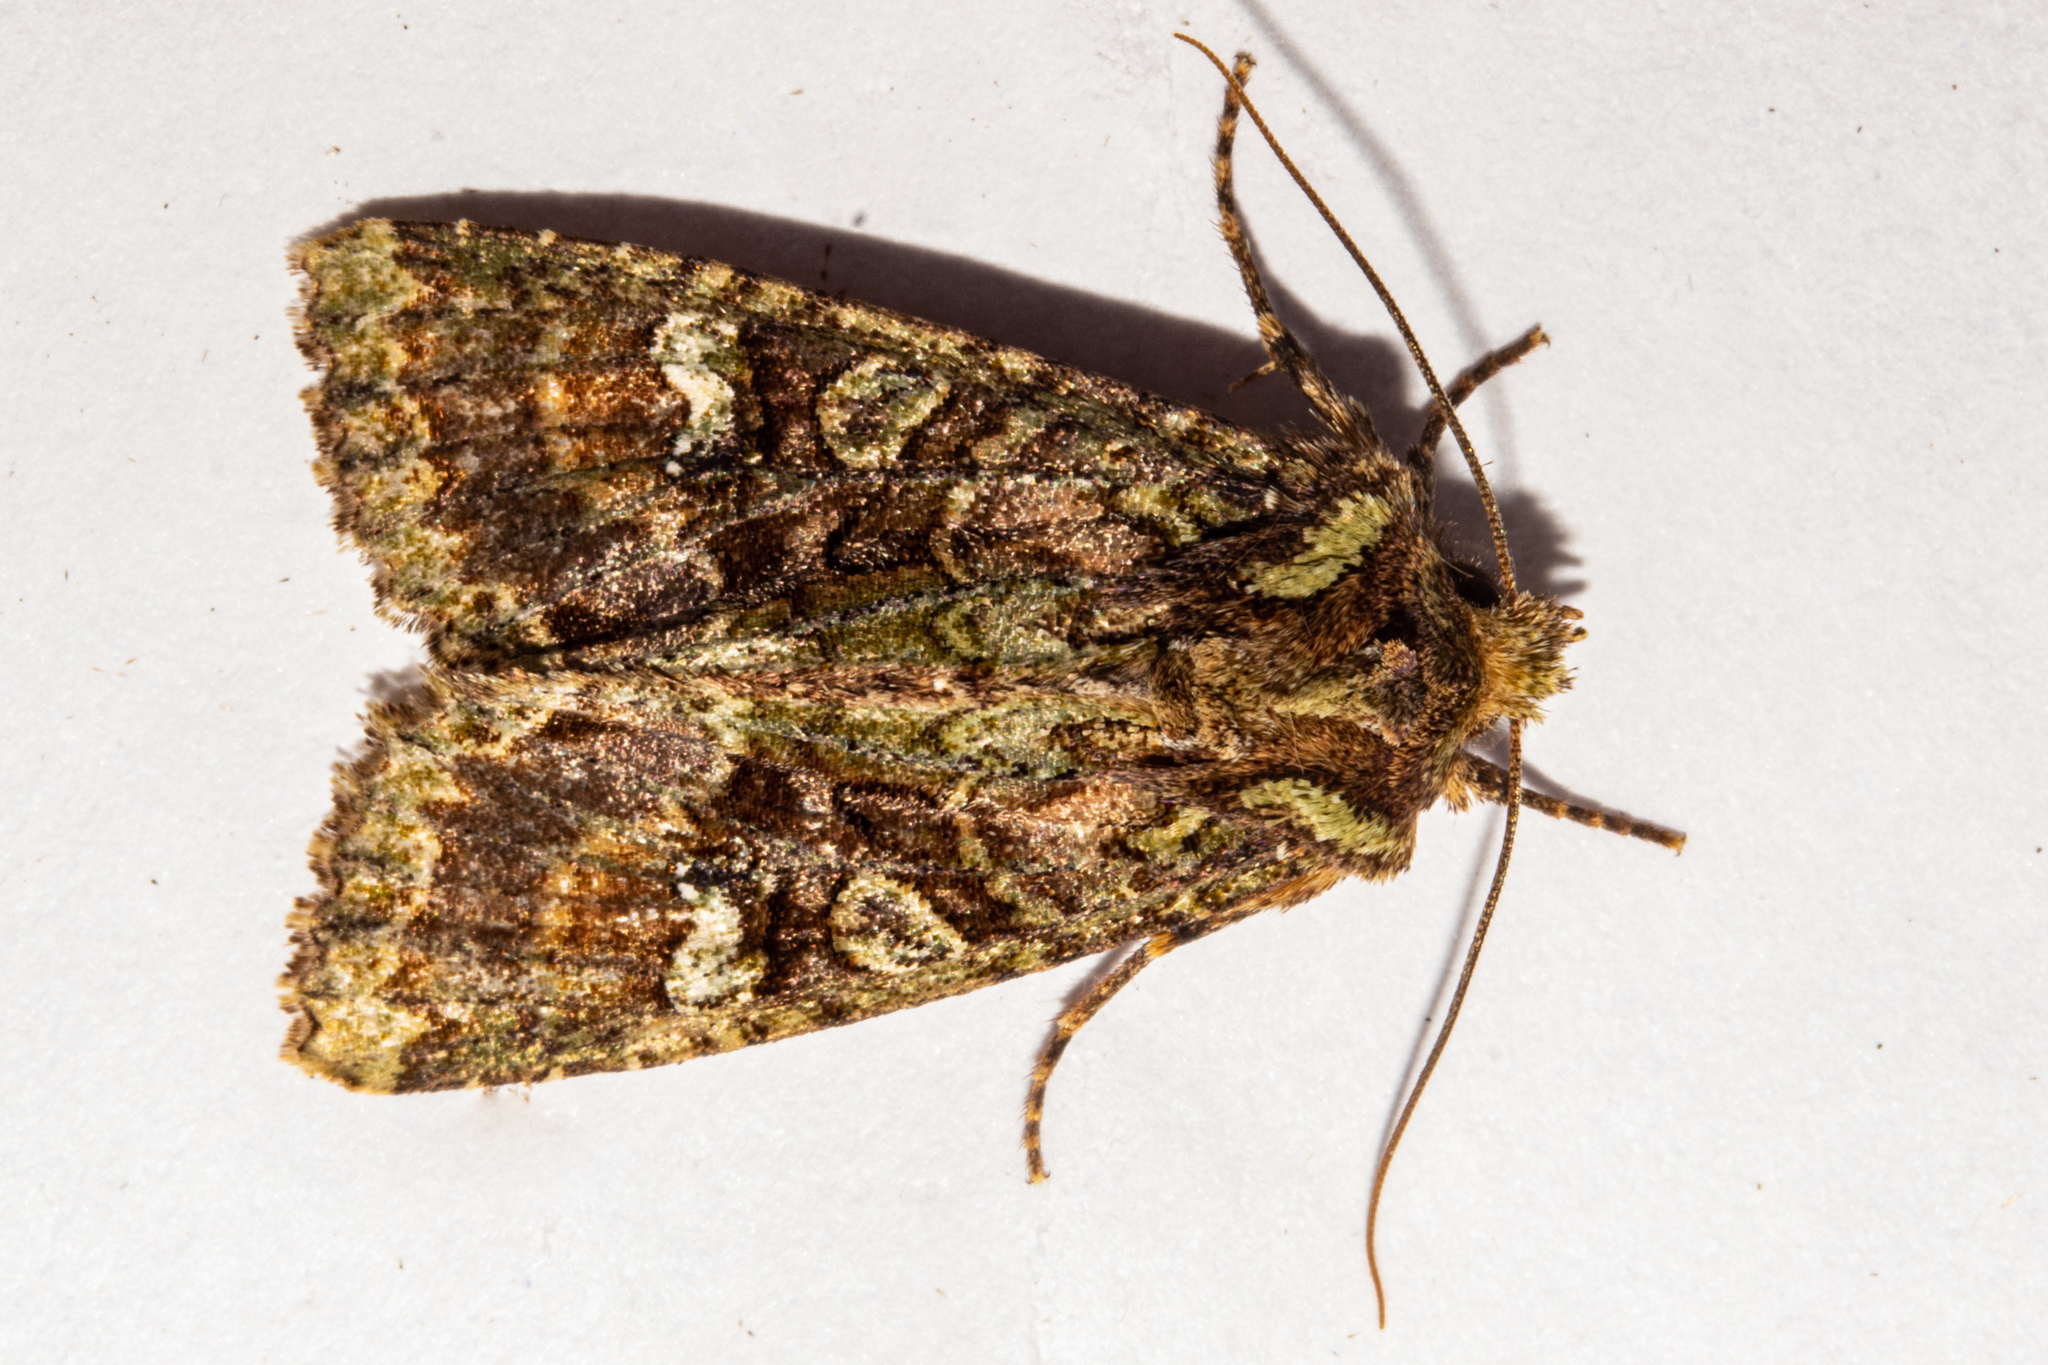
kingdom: Animalia
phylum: Arthropoda
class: Insecta
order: Lepidoptera
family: Noctuidae
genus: Meterana
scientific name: Meterana
